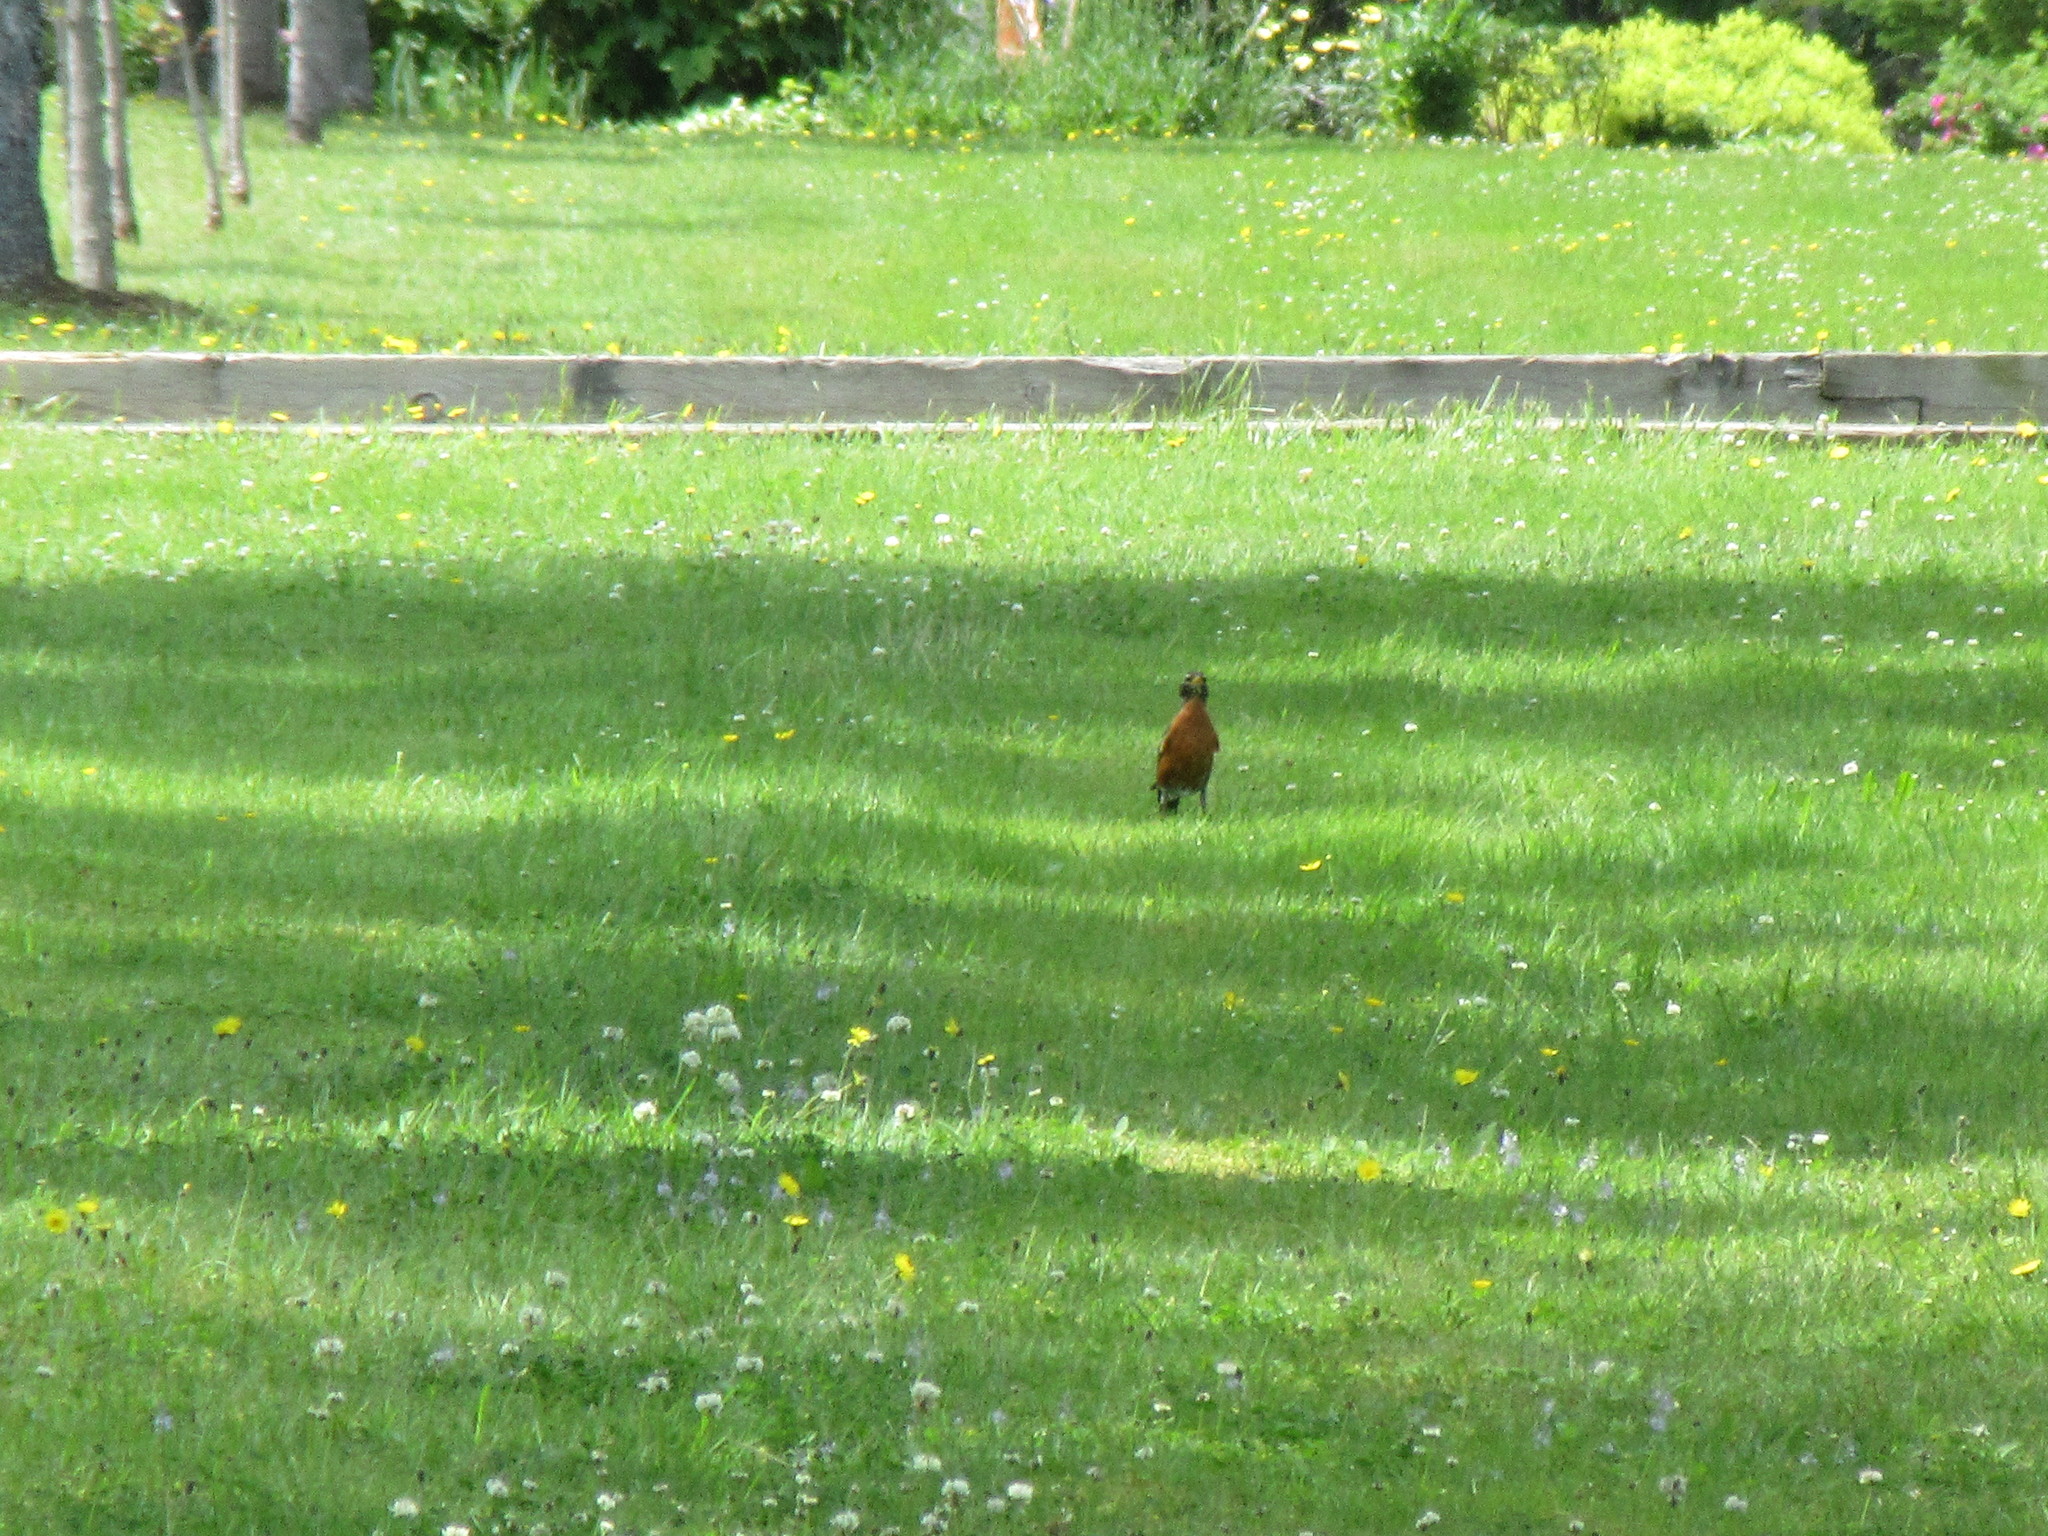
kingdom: Animalia
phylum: Chordata
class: Aves
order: Passeriformes
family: Turdidae
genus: Turdus
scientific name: Turdus migratorius
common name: American robin
